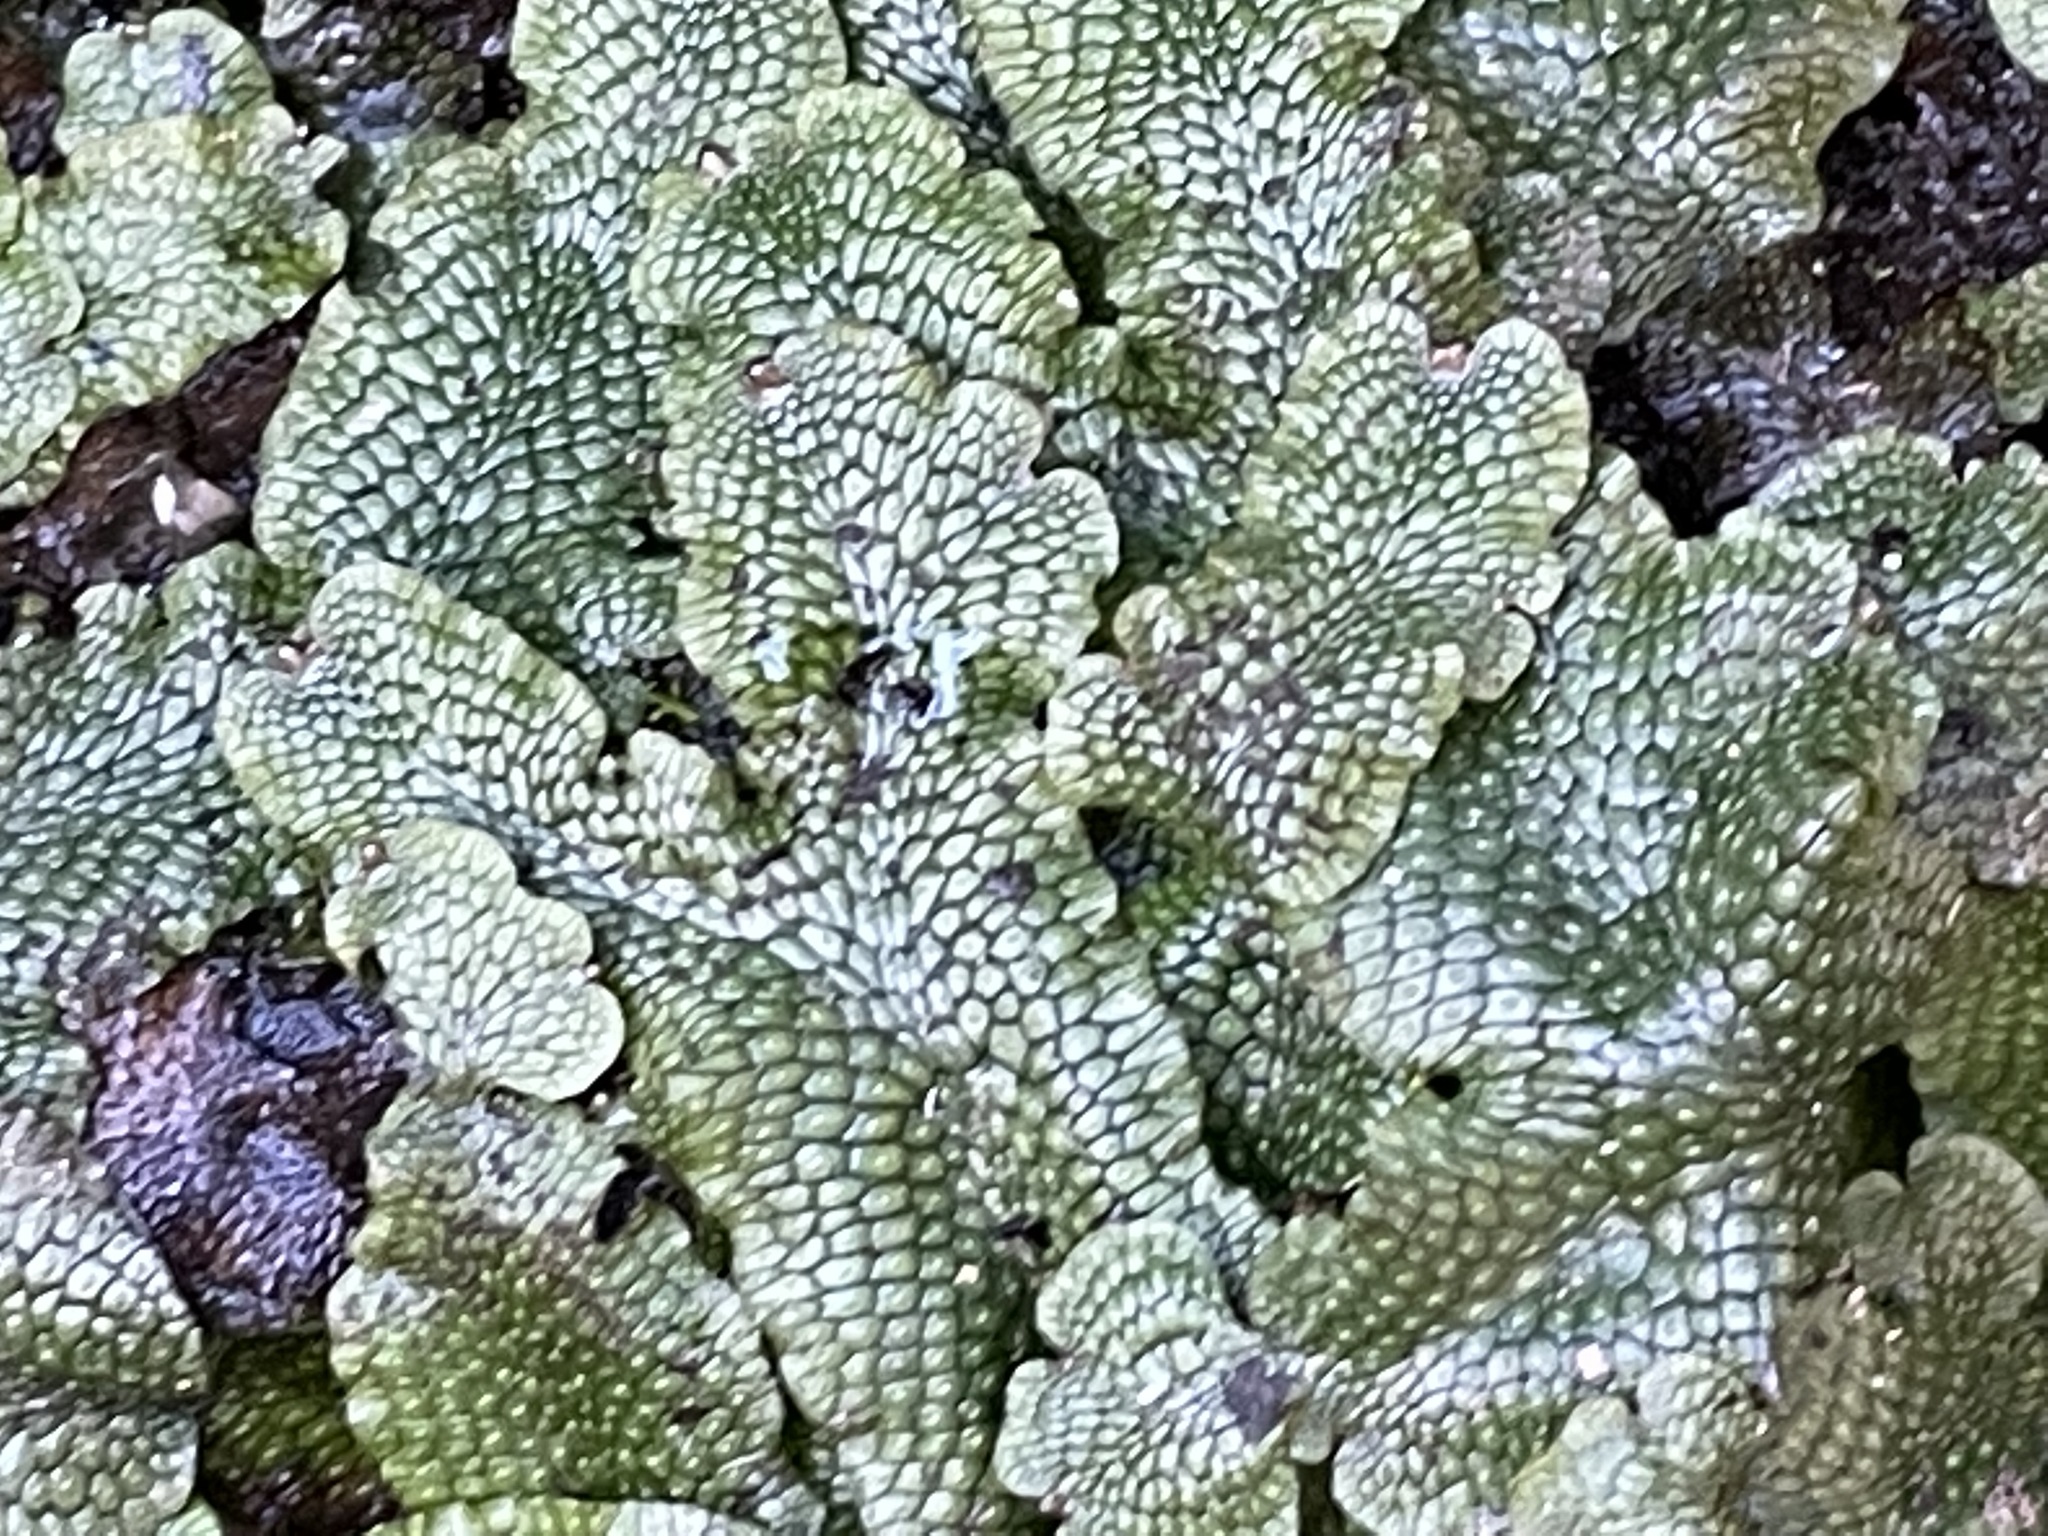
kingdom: Plantae
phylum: Marchantiophyta
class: Marchantiopsida
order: Marchantiales
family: Conocephalaceae
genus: Conocephalum
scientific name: Conocephalum salebrosum
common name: Cat-tongue liverwort
